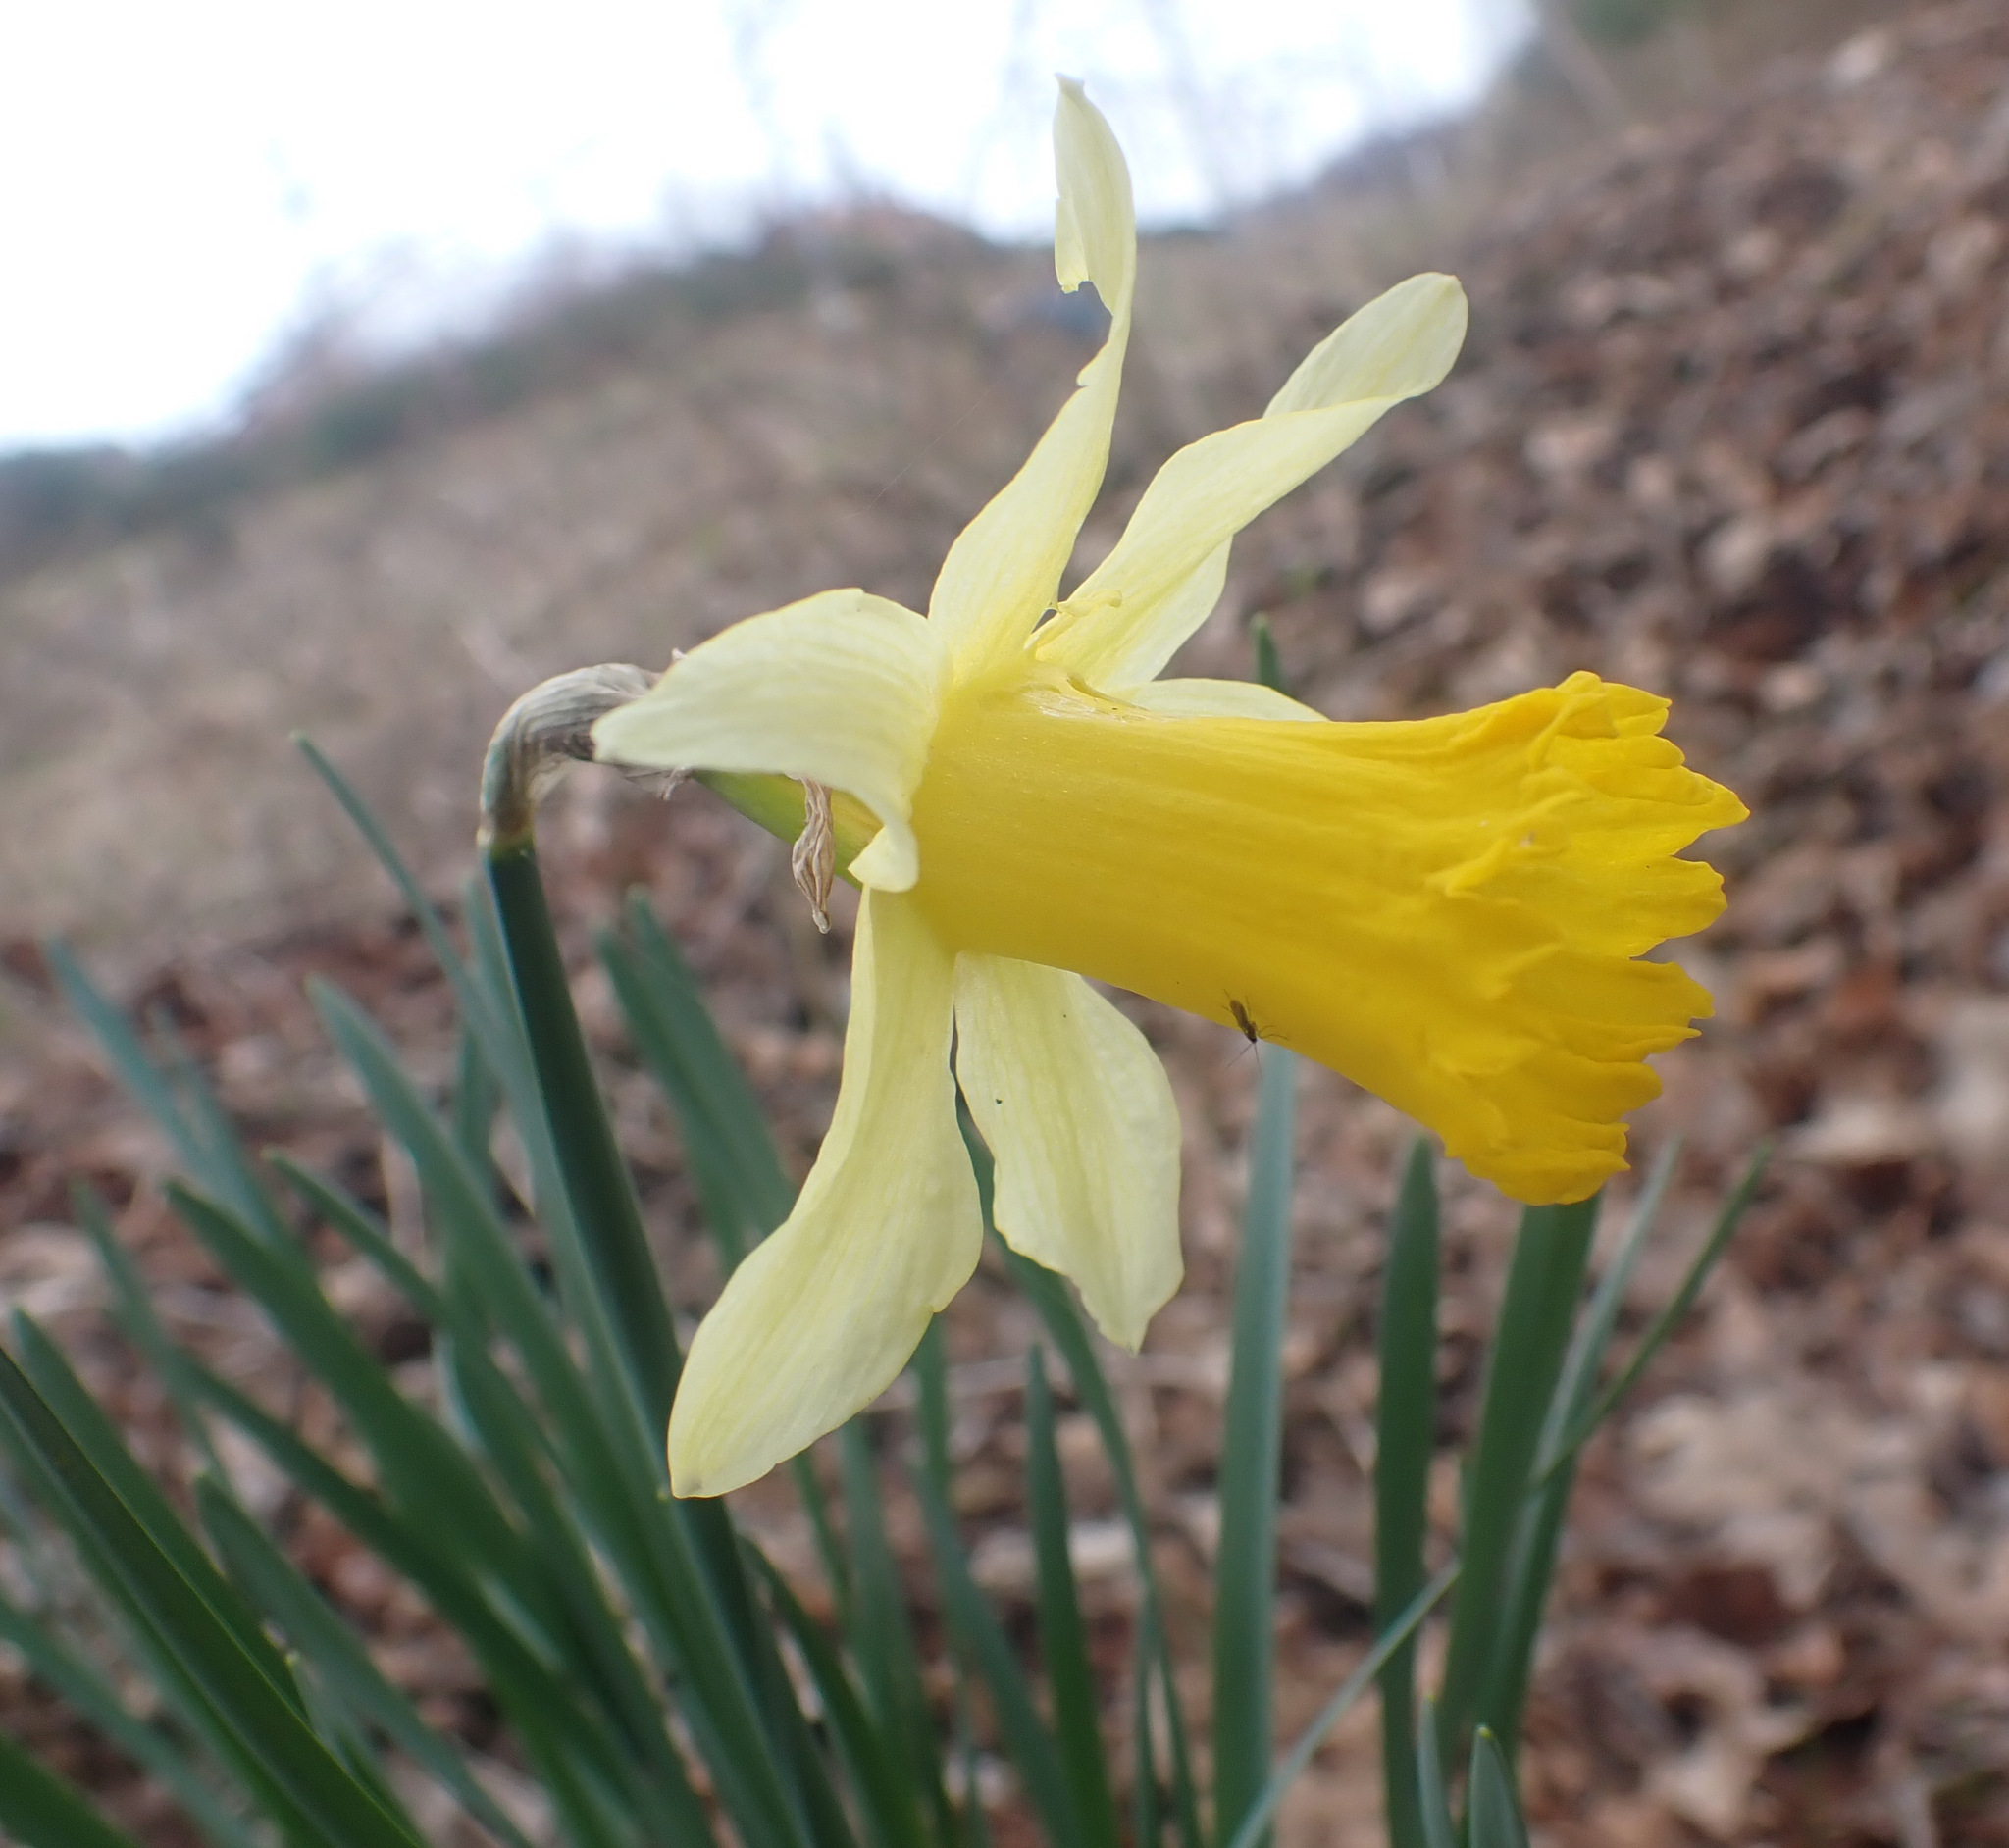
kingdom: Plantae
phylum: Tracheophyta
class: Liliopsida
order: Asparagales
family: Amaryllidaceae
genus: Narcissus
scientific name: Narcissus pseudonarcissus
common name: Daffodil
